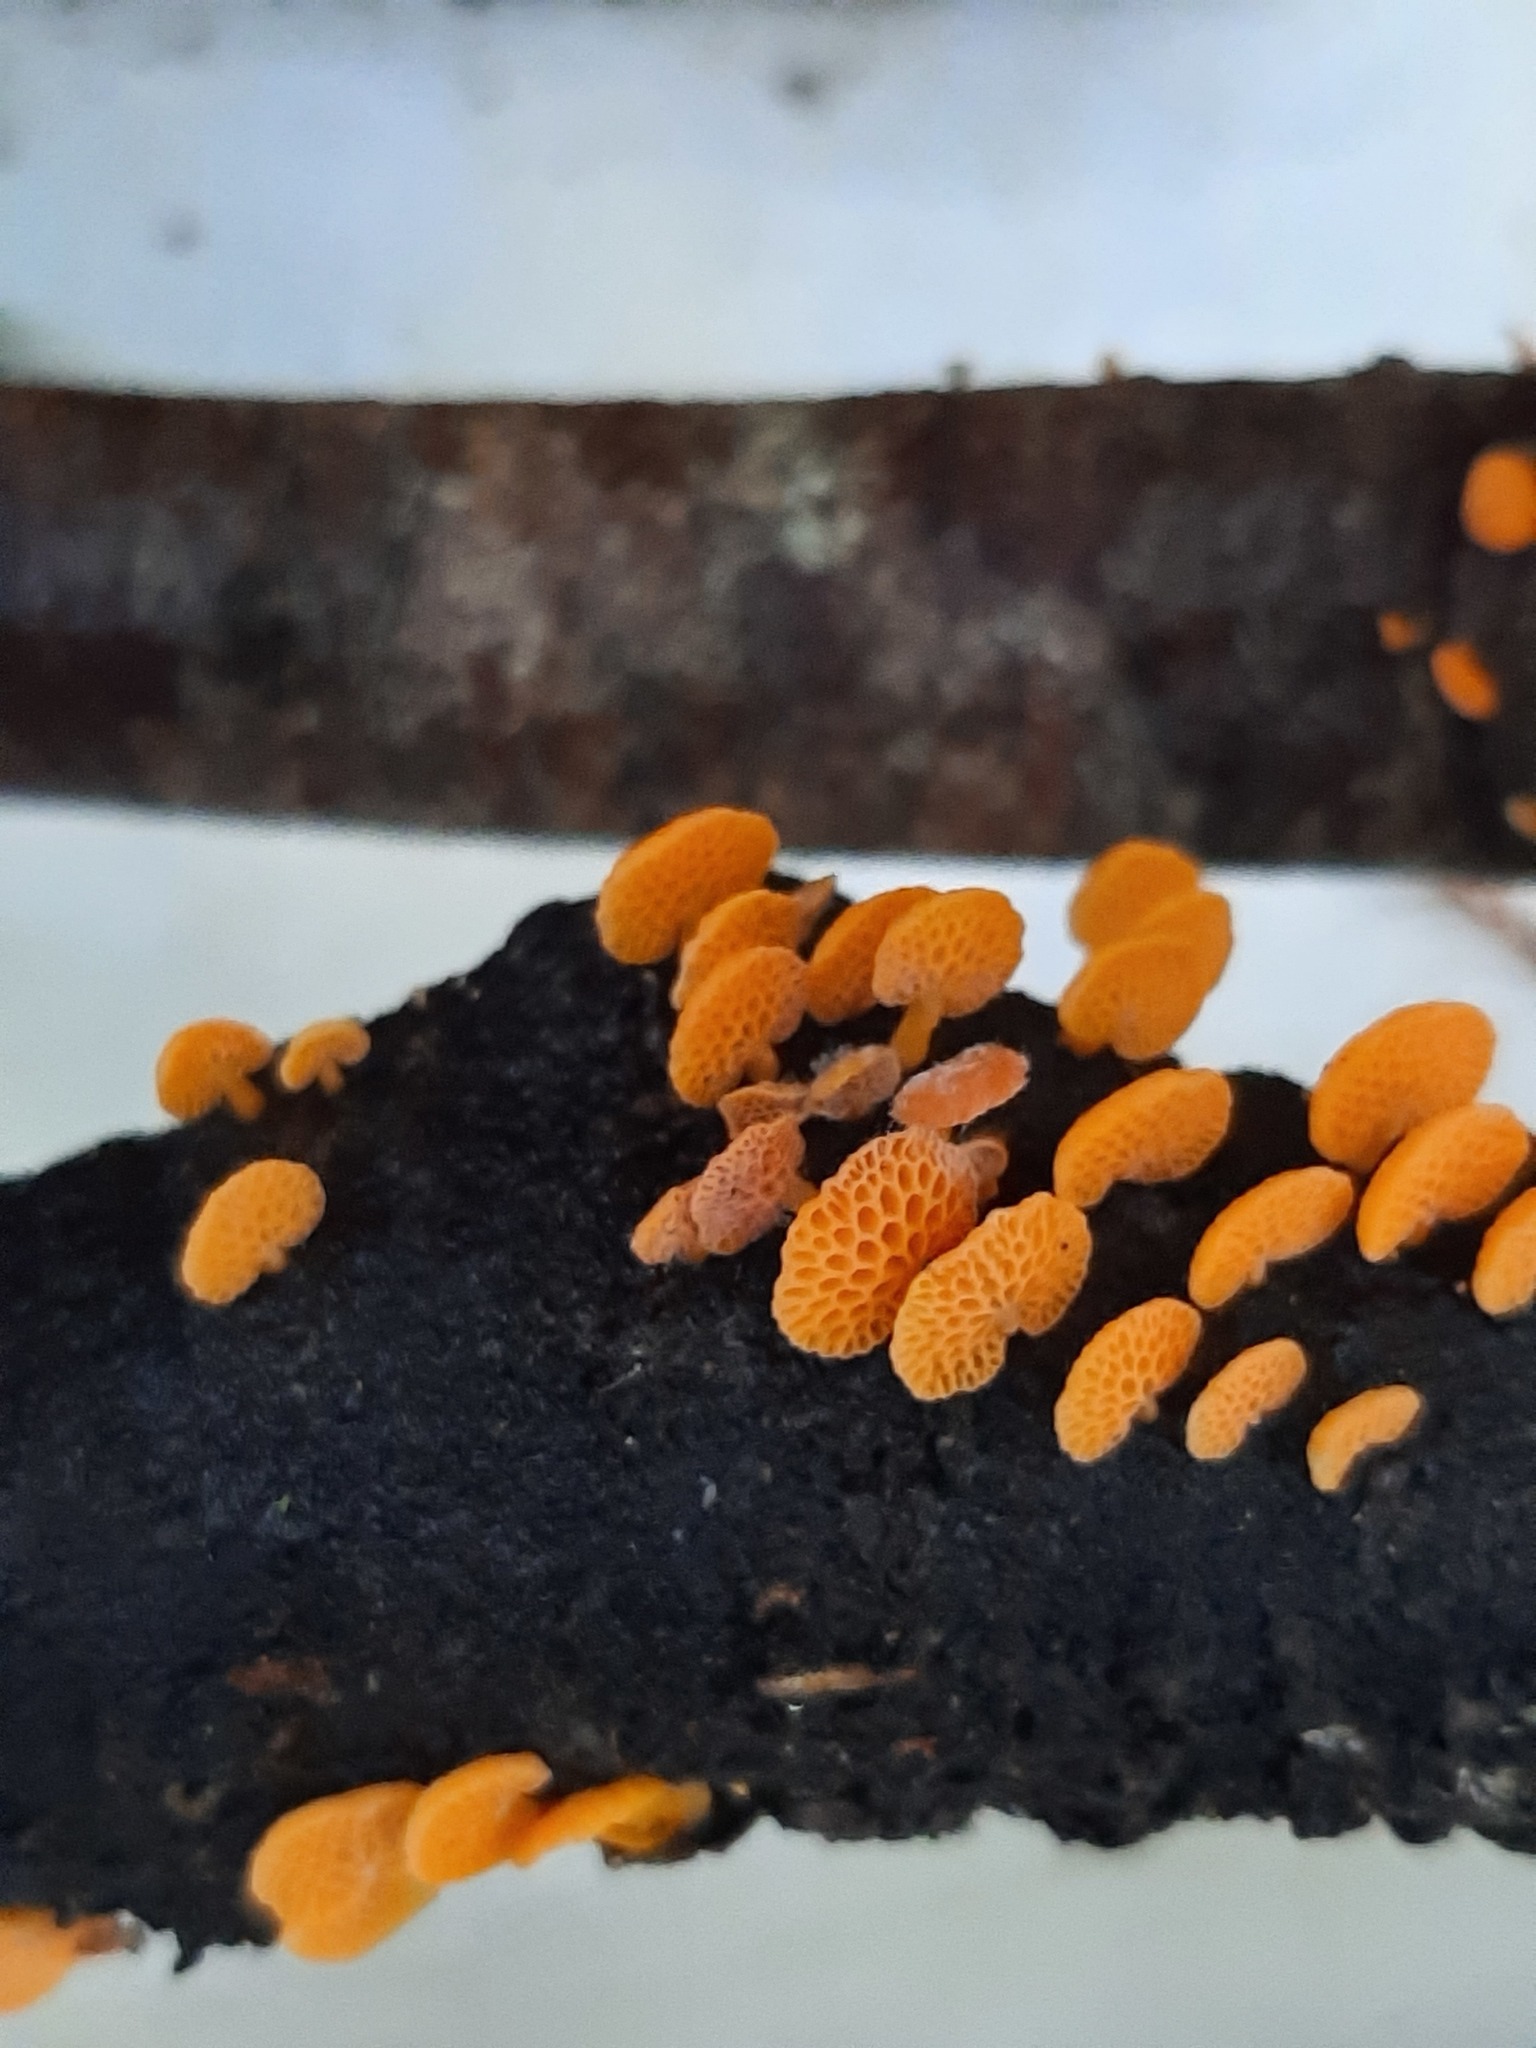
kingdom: Fungi
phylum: Basidiomycota
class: Agaricomycetes
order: Agaricales
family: Mycenaceae
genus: Favolaschia
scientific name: Favolaschia claudopus
